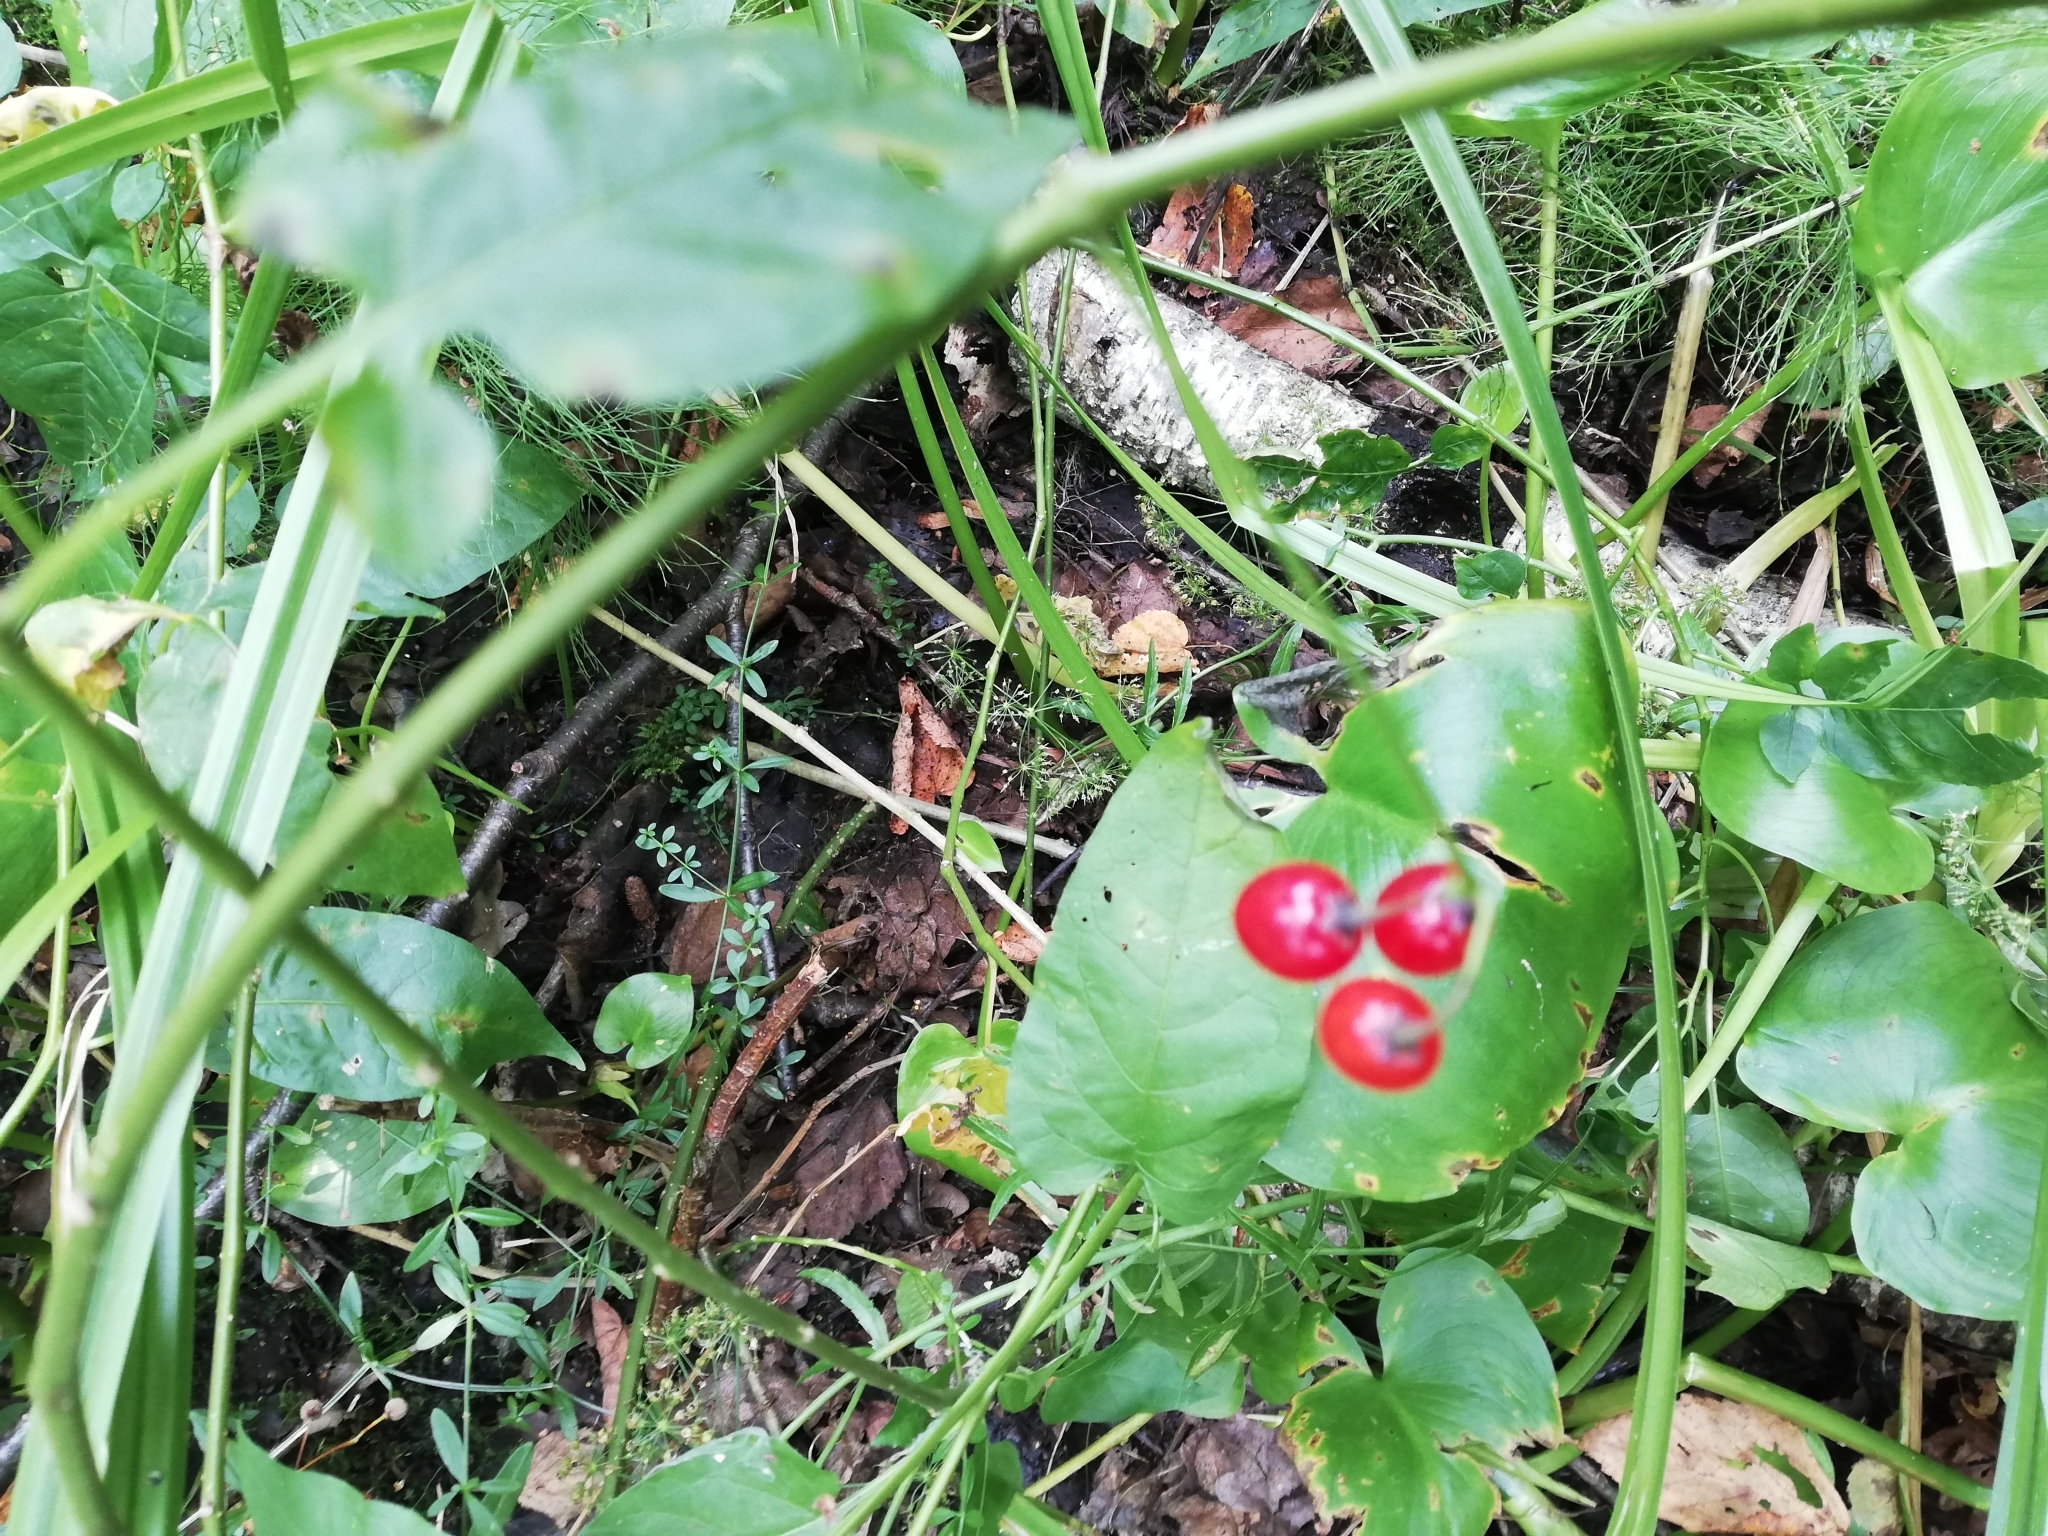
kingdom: Plantae
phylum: Tracheophyta
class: Magnoliopsida
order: Solanales
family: Solanaceae
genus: Solanum
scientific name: Solanum dulcamara
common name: Climbing nightshade
